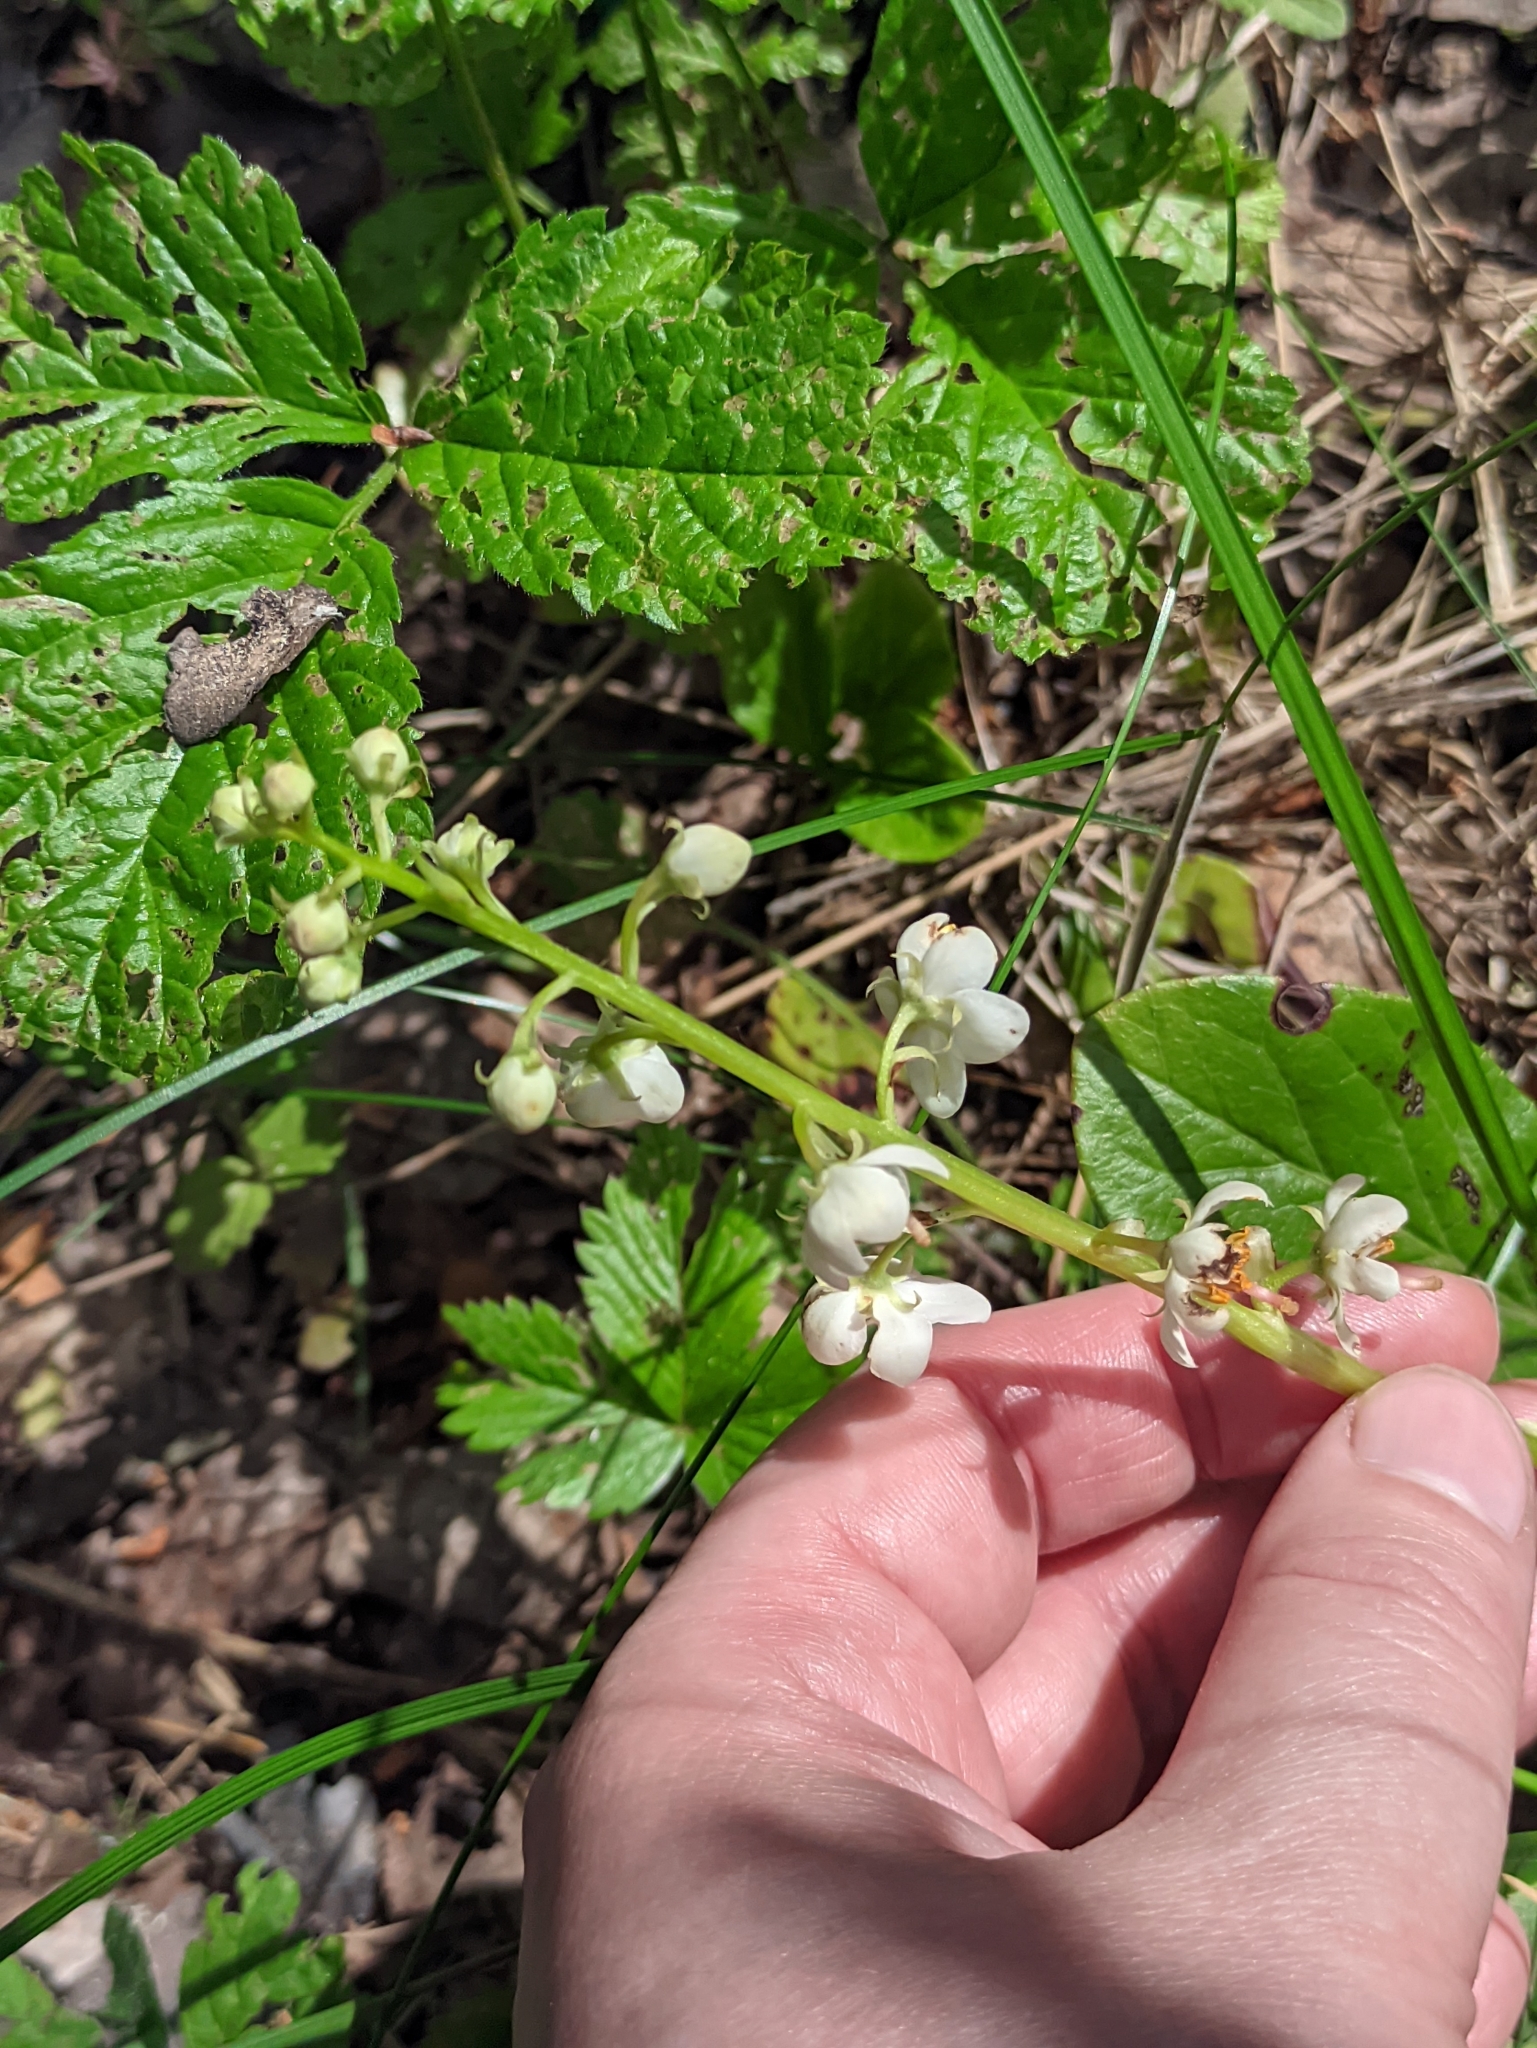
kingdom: Plantae
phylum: Tracheophyta
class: Magnoliopsida
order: Ericales
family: Ericaceae
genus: Pyrola
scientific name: Pyrola rotundifolia
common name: Round-leaved wintergreen
